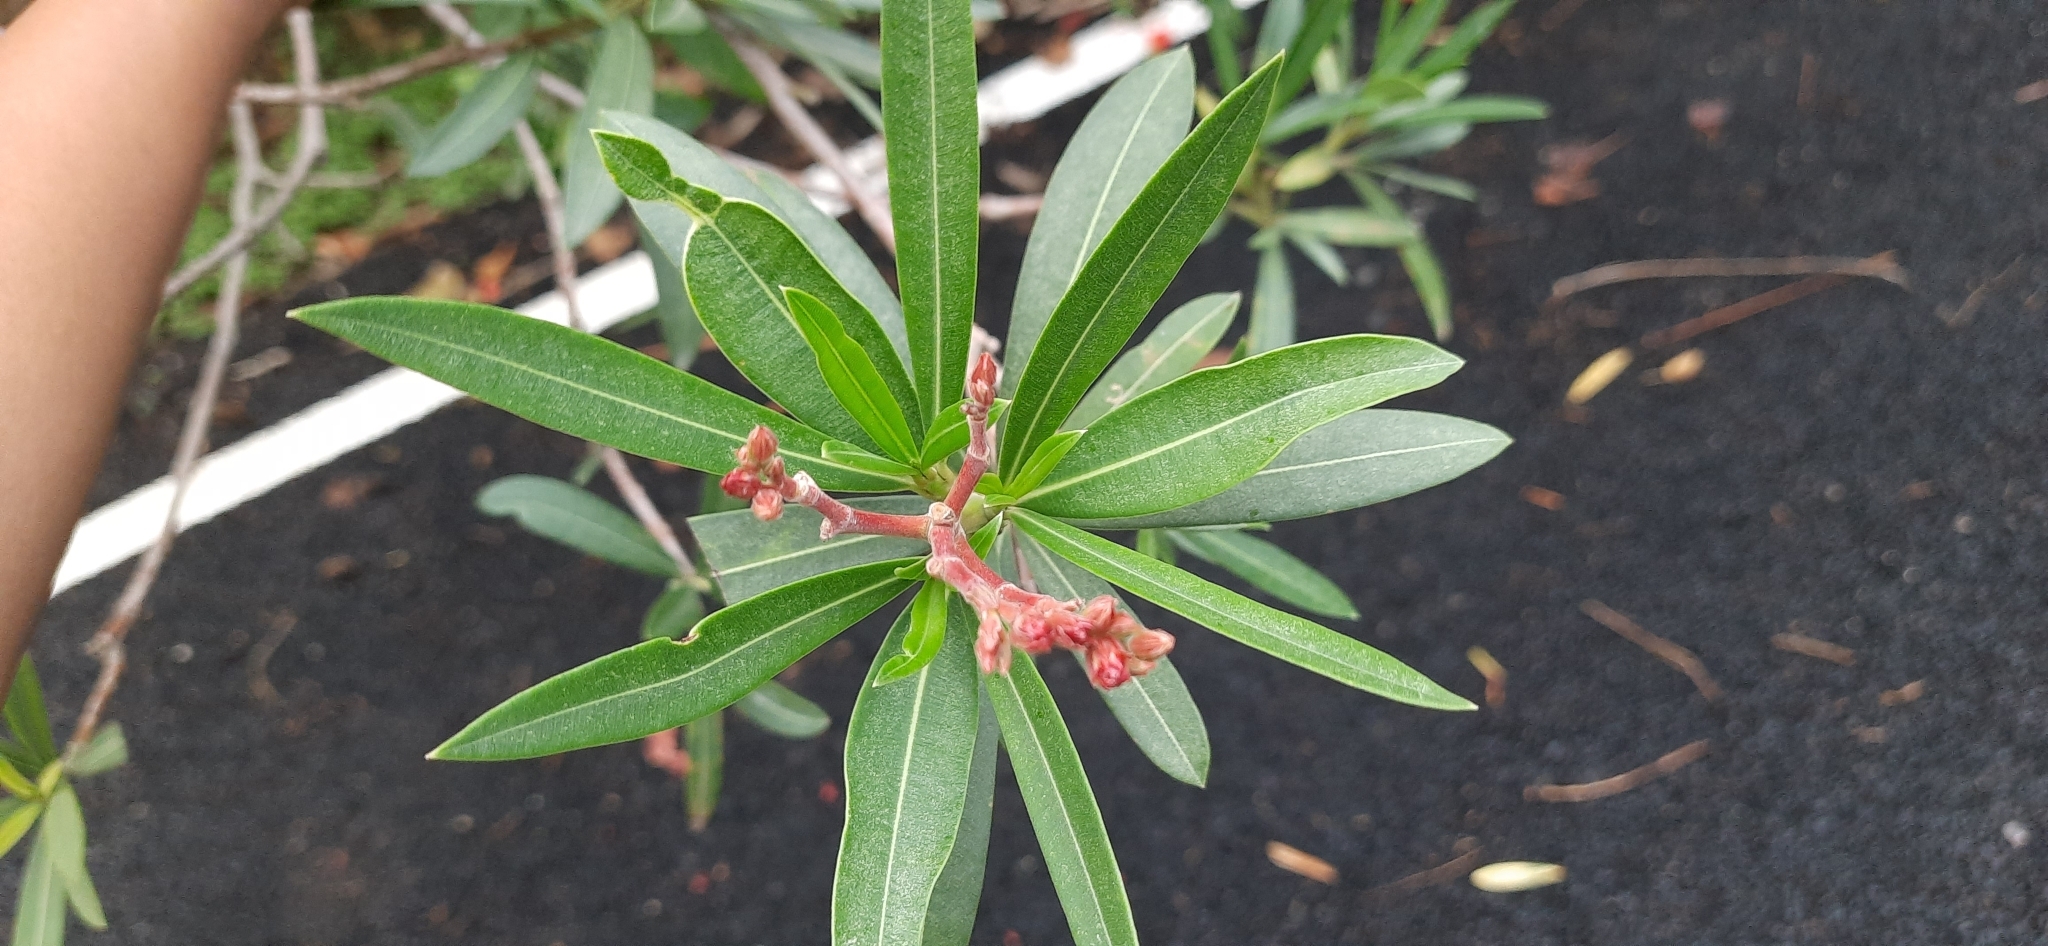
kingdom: Plantae
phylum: Tracheophyta
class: Magnoliopsida
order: Gentianales
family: Apocynaceae
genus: Nerium
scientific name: Nerium oleander
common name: Oleander
